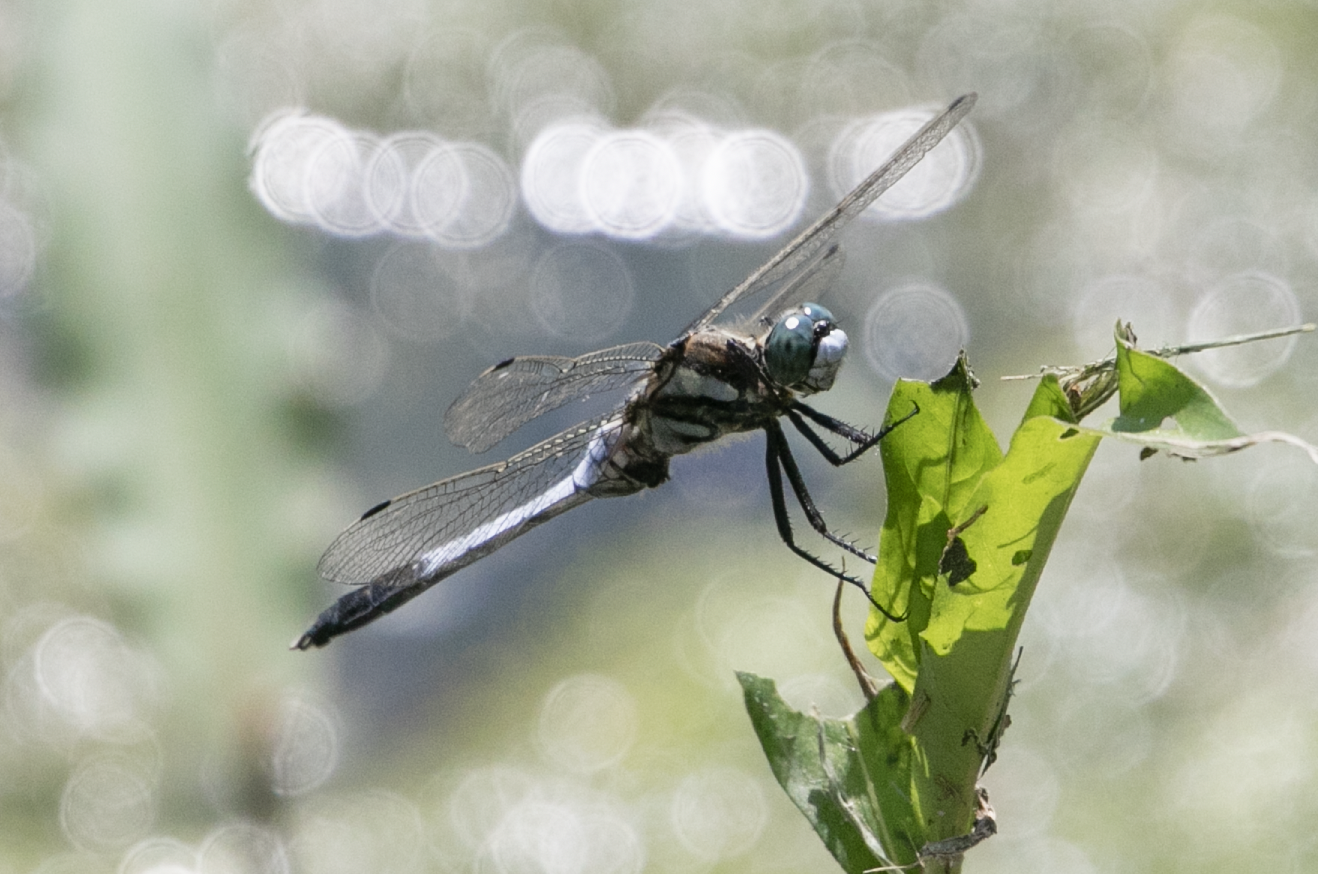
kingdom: Animalia
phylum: Arthropoda
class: Insecta
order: Odonata
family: Libellulidae
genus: Orthetrum
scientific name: Orthetrum albistylum
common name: White-tailed skimmer
